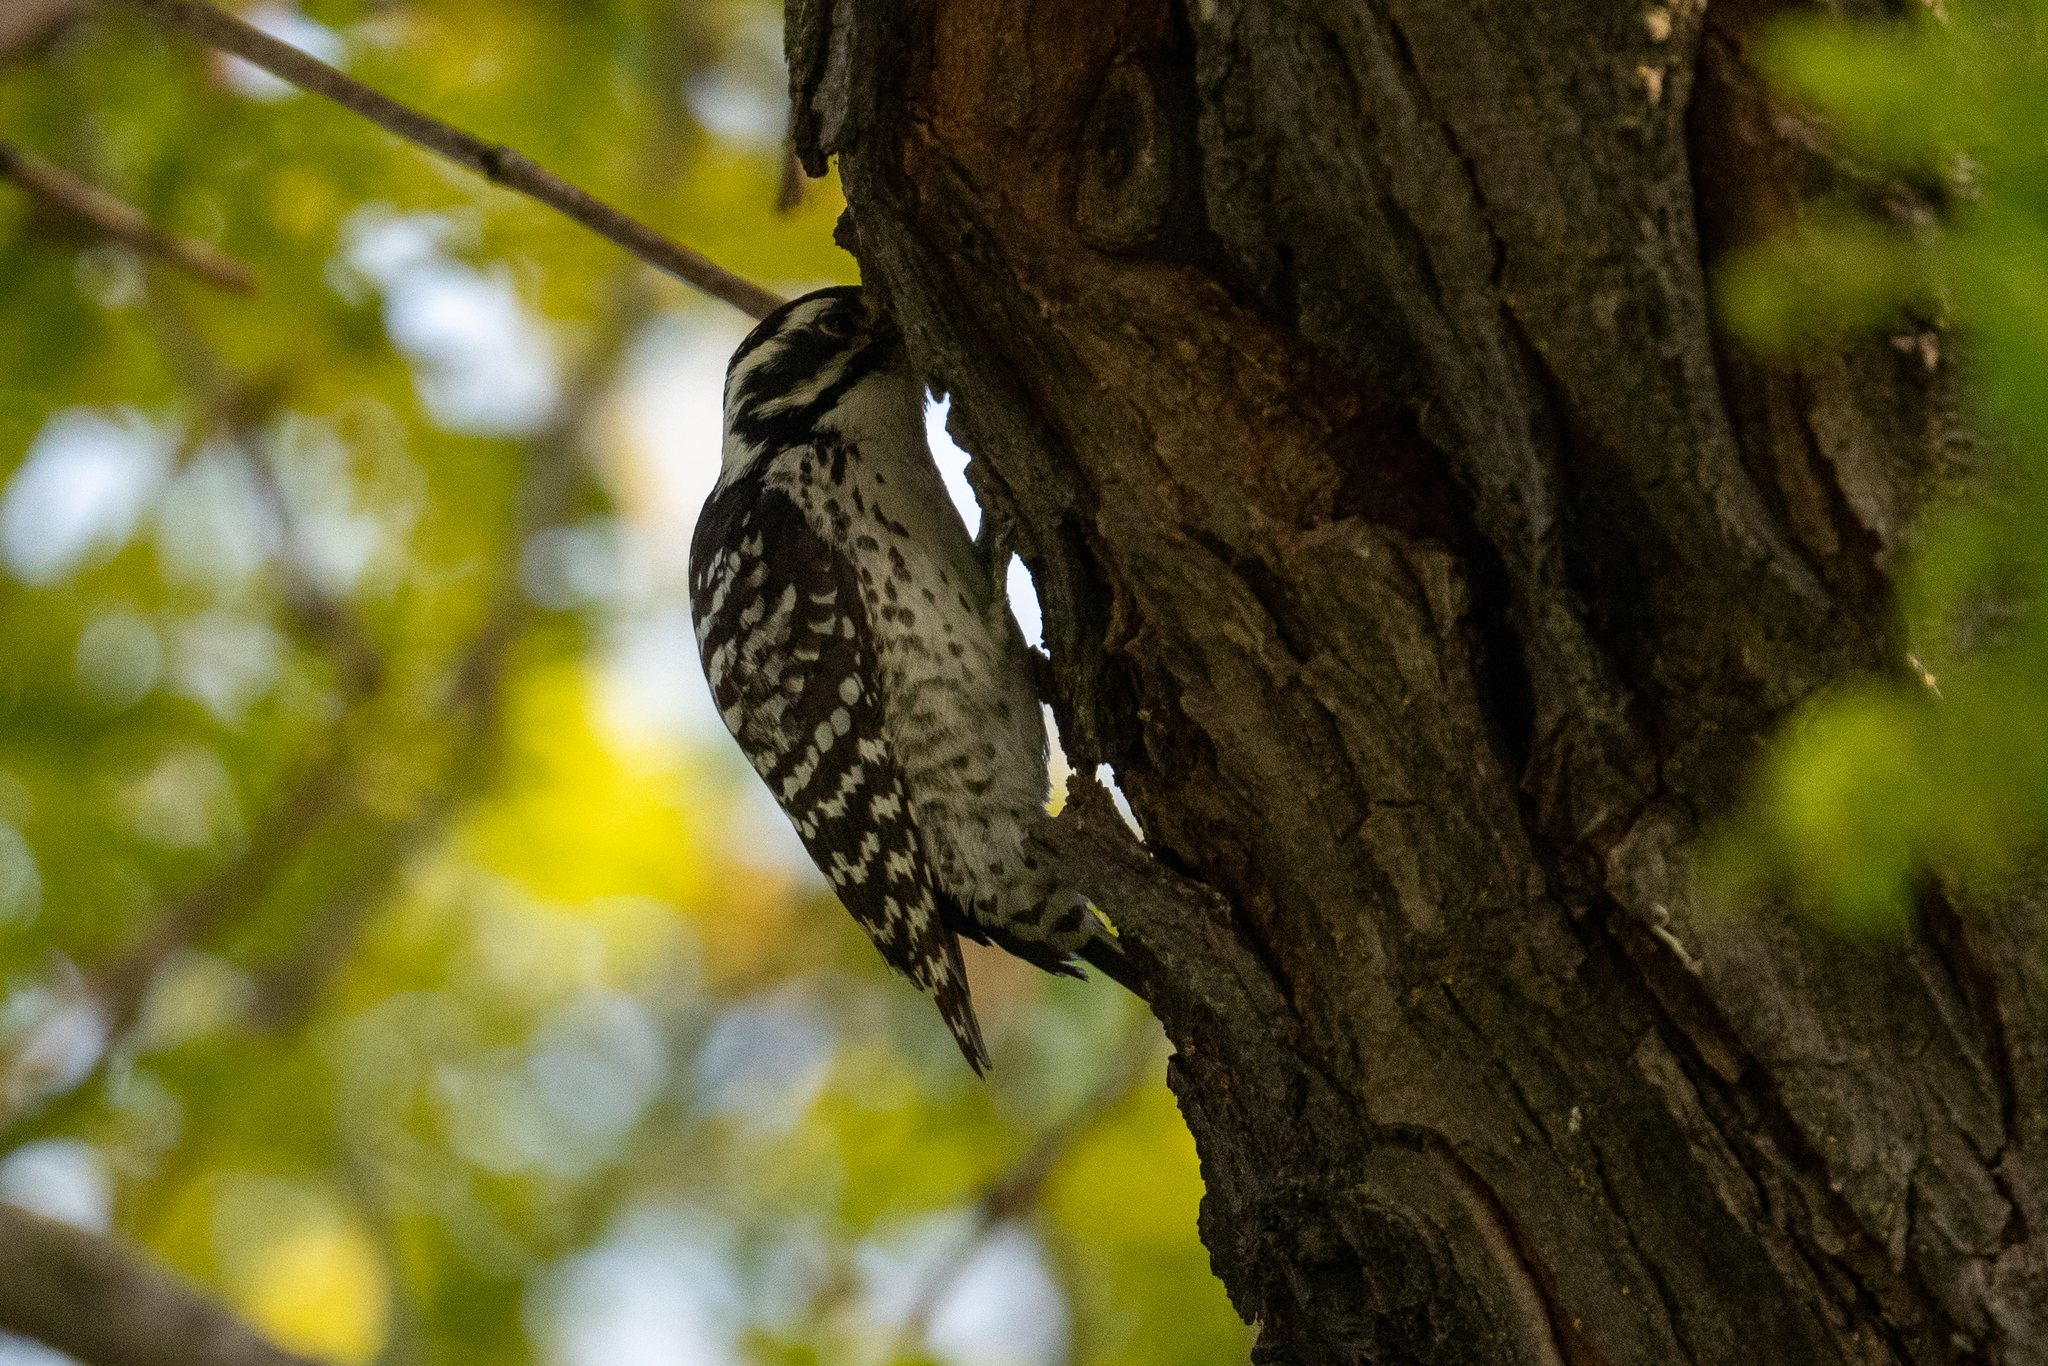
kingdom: Animalia
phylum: Chordata
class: Aves
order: Piciformes
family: Picidae
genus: Dryobates
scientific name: Dryobates nuttallii
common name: Nuttall's woodpecker
